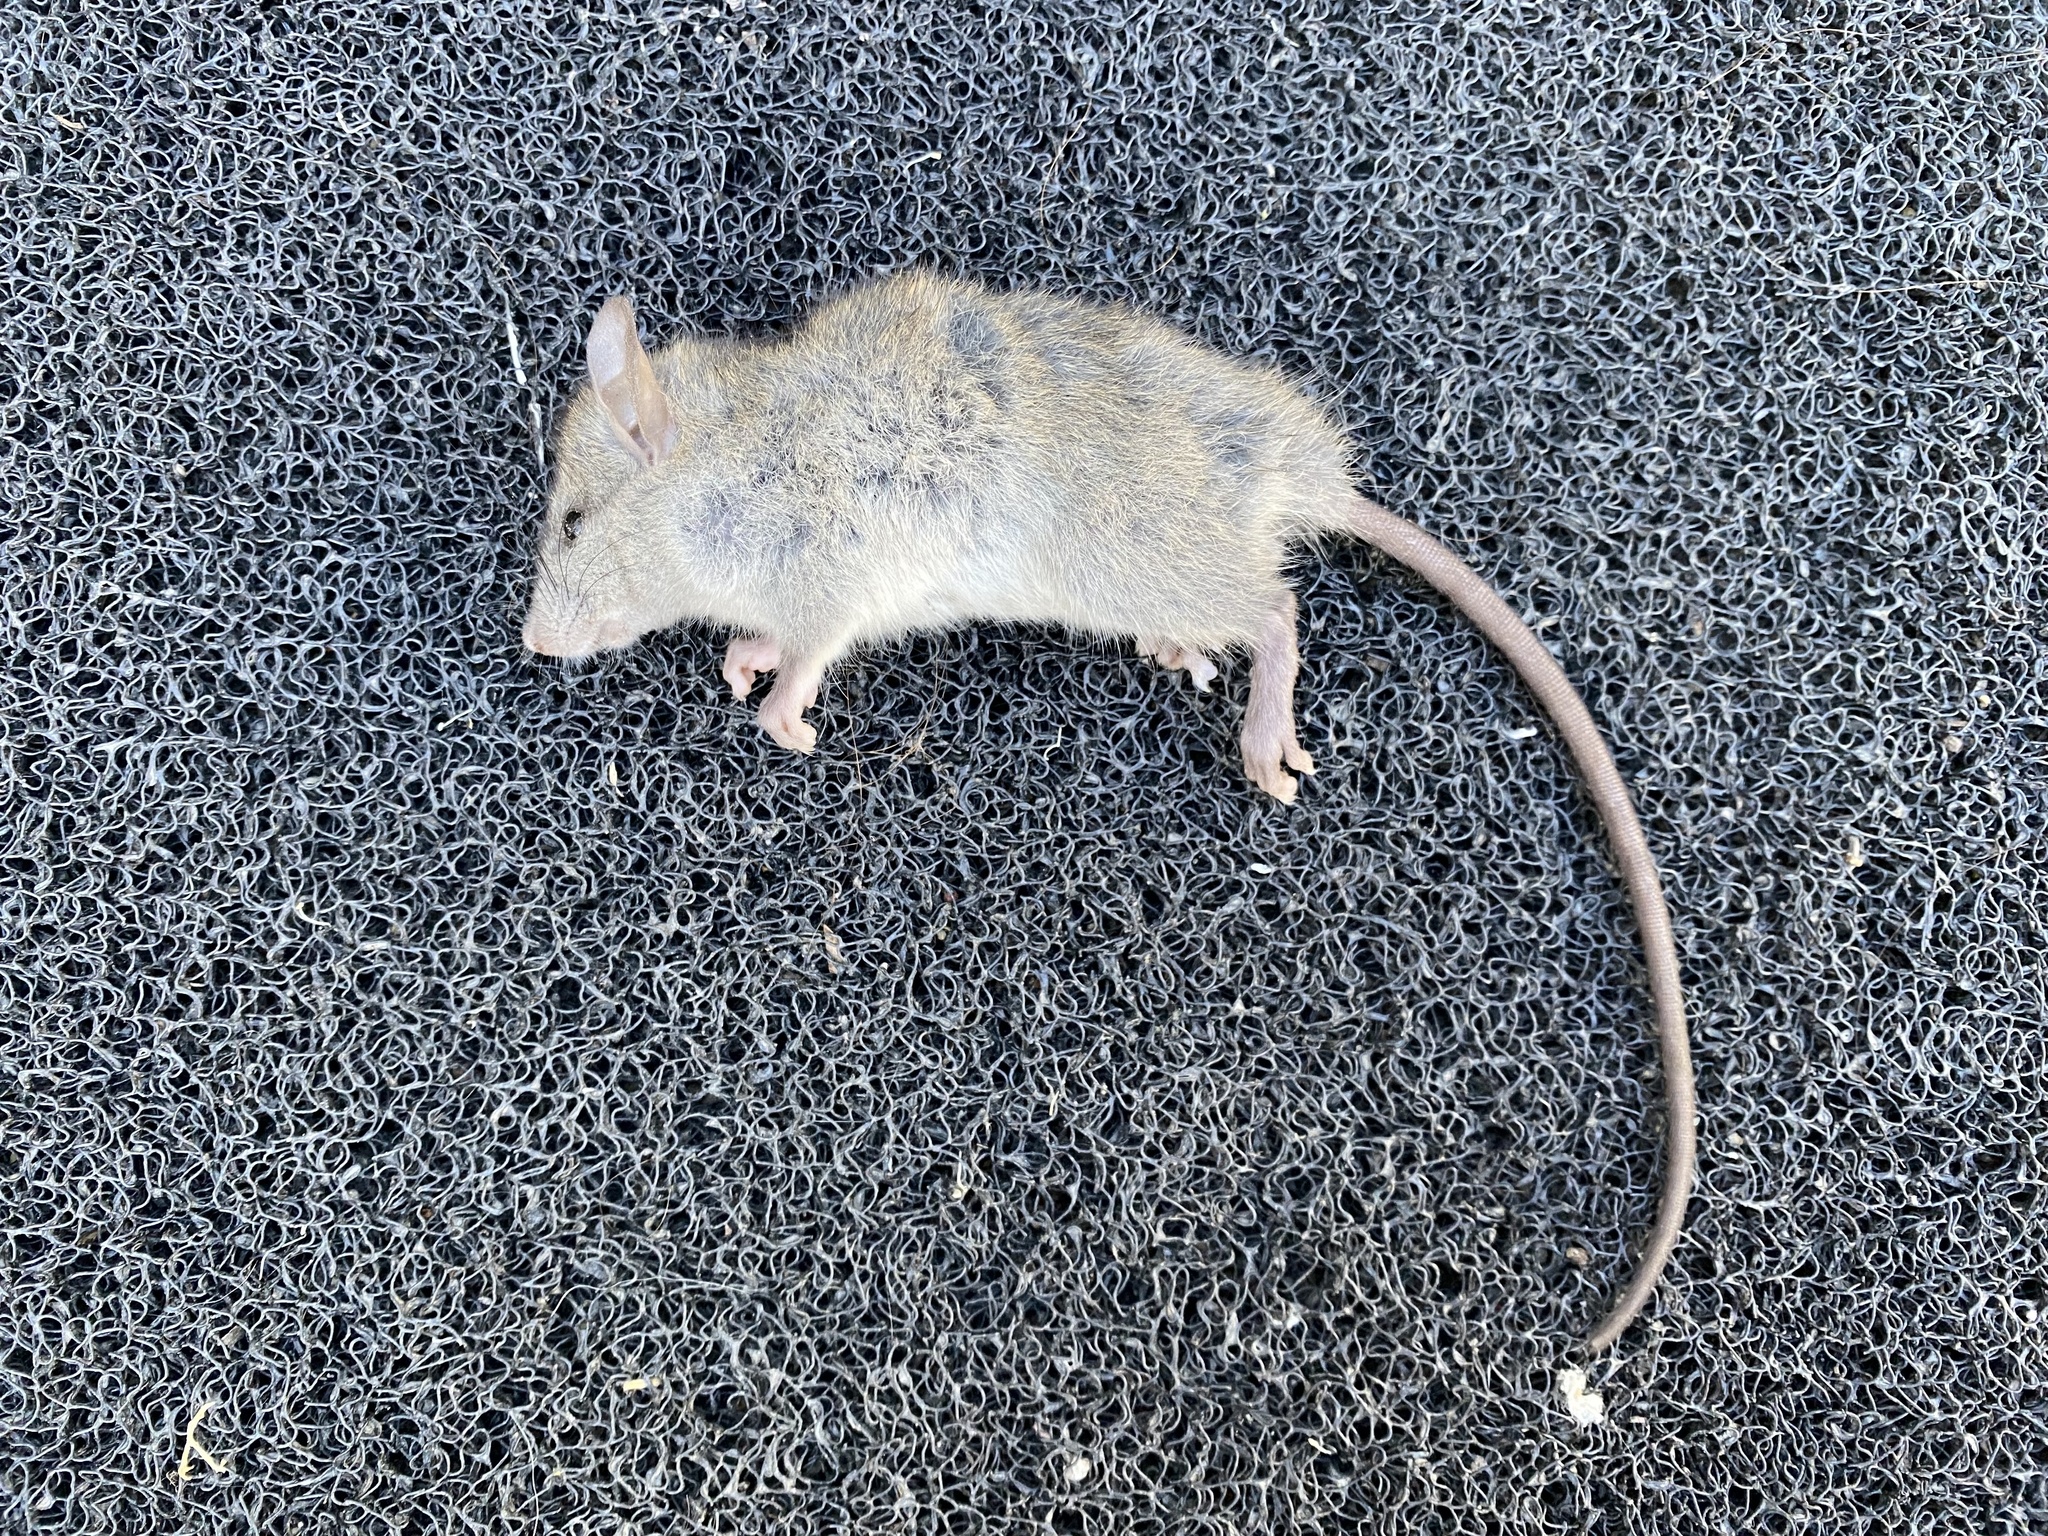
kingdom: Animalia
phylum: Chordata
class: Mammalia
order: Rodentia
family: Muridae
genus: Mus
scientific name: Mus musculus
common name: House mouse
